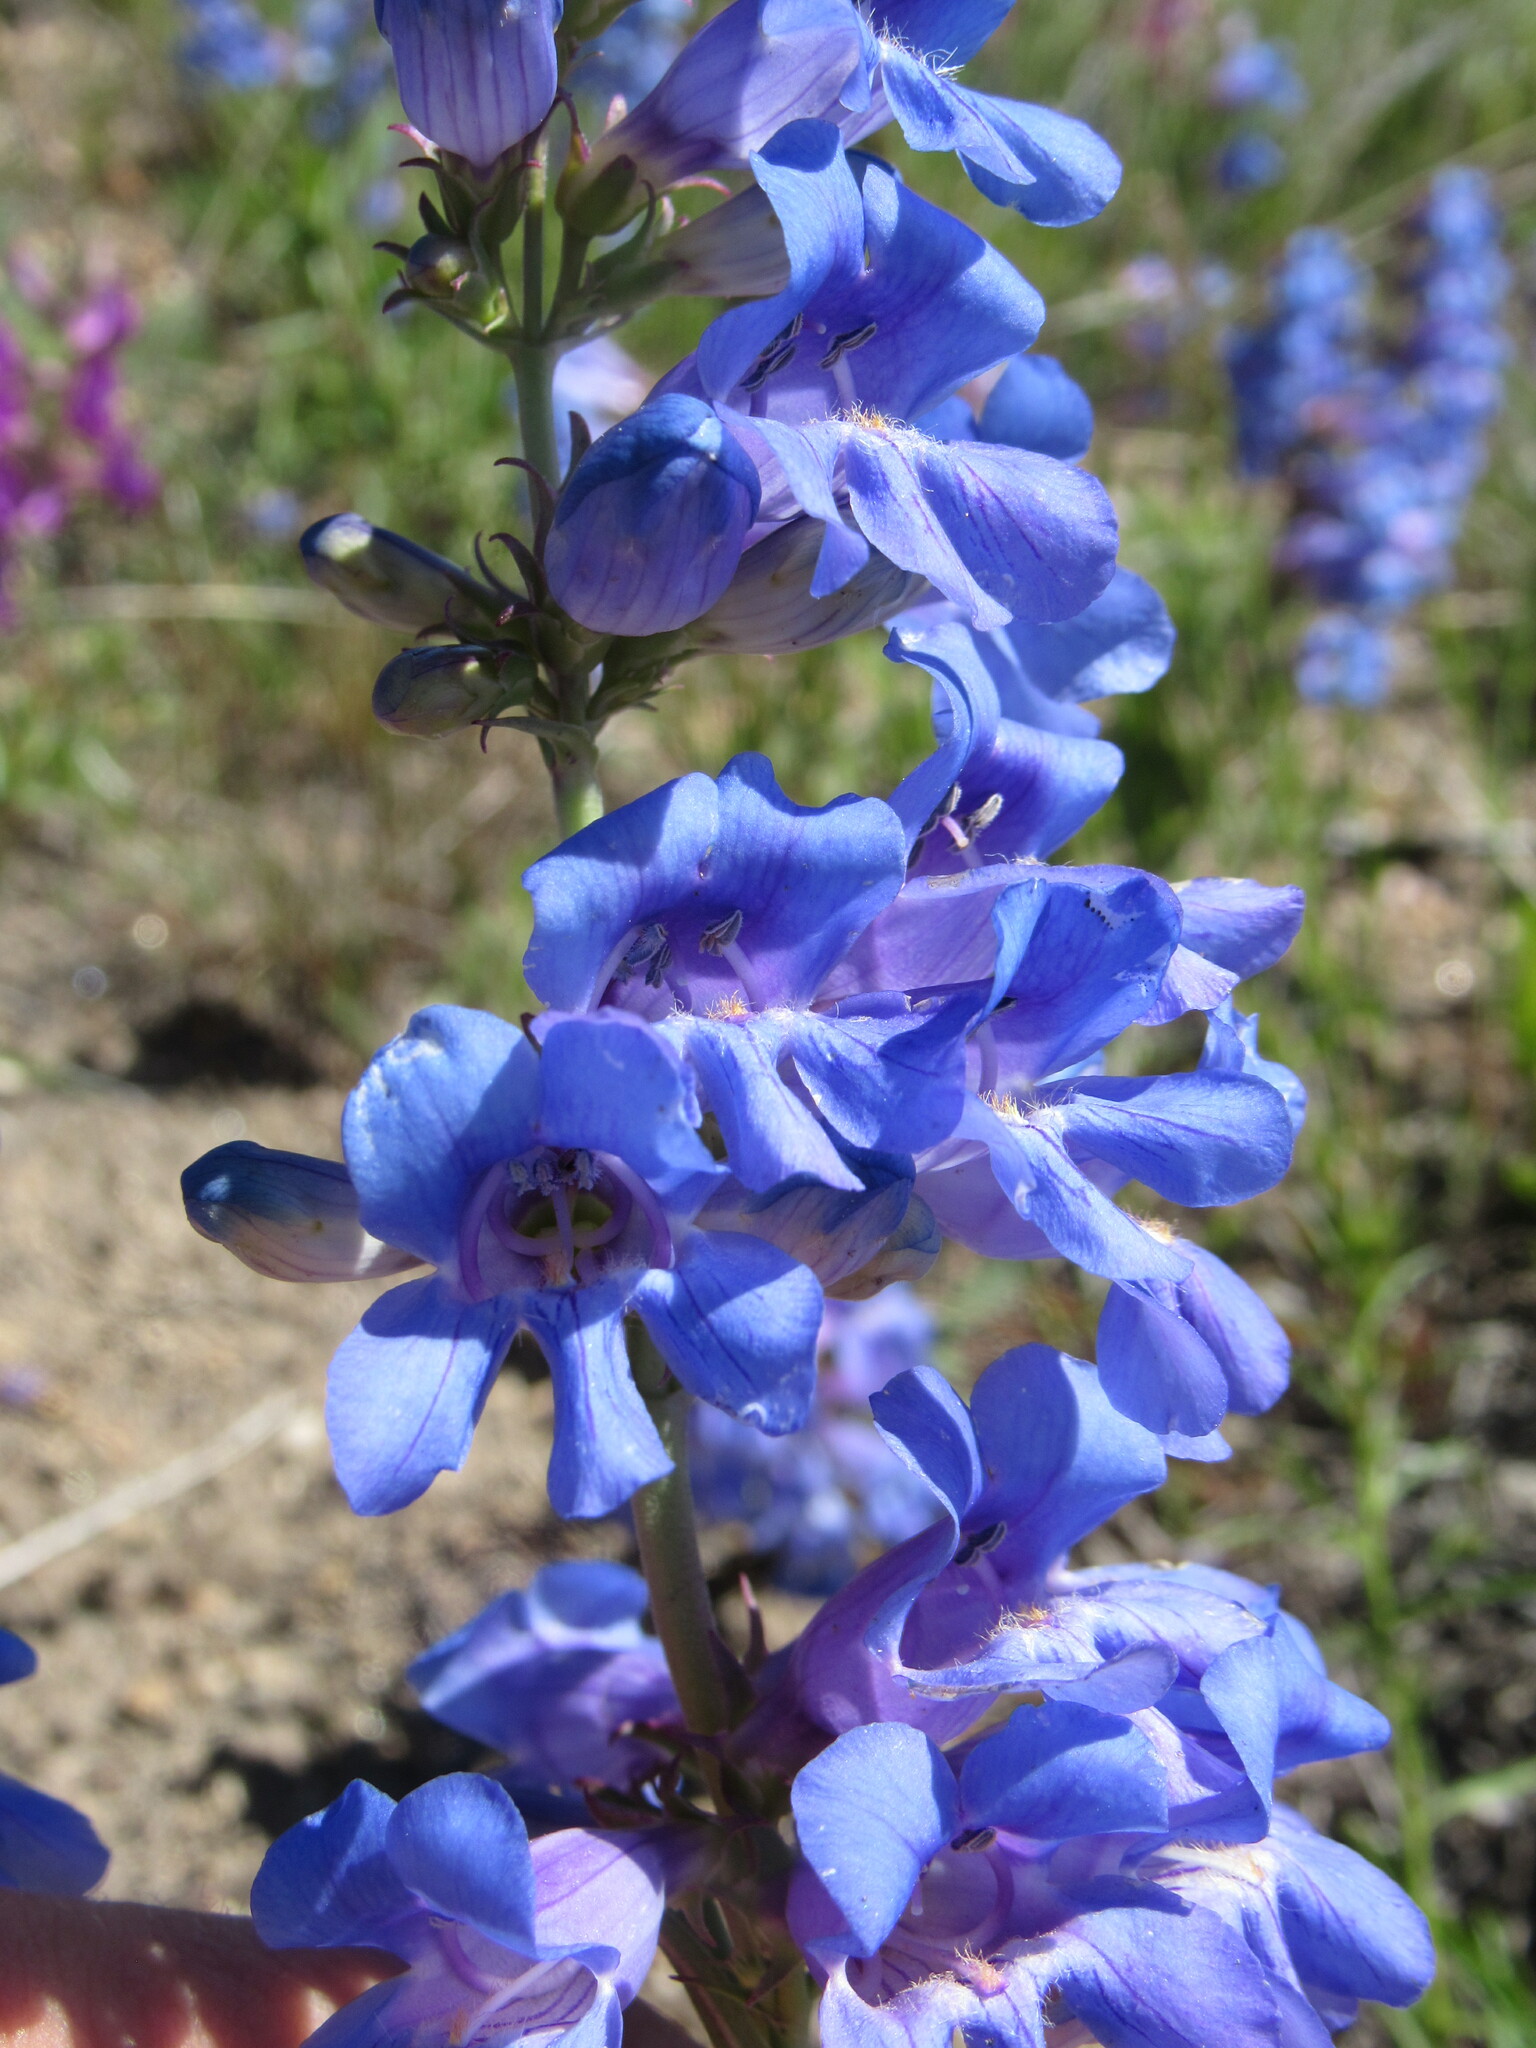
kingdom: Plantae
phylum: Tracheophyta
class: Magnoliopsida
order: Lamiales
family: Plantaginaceae
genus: Penstemon
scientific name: Penstemon glaber
